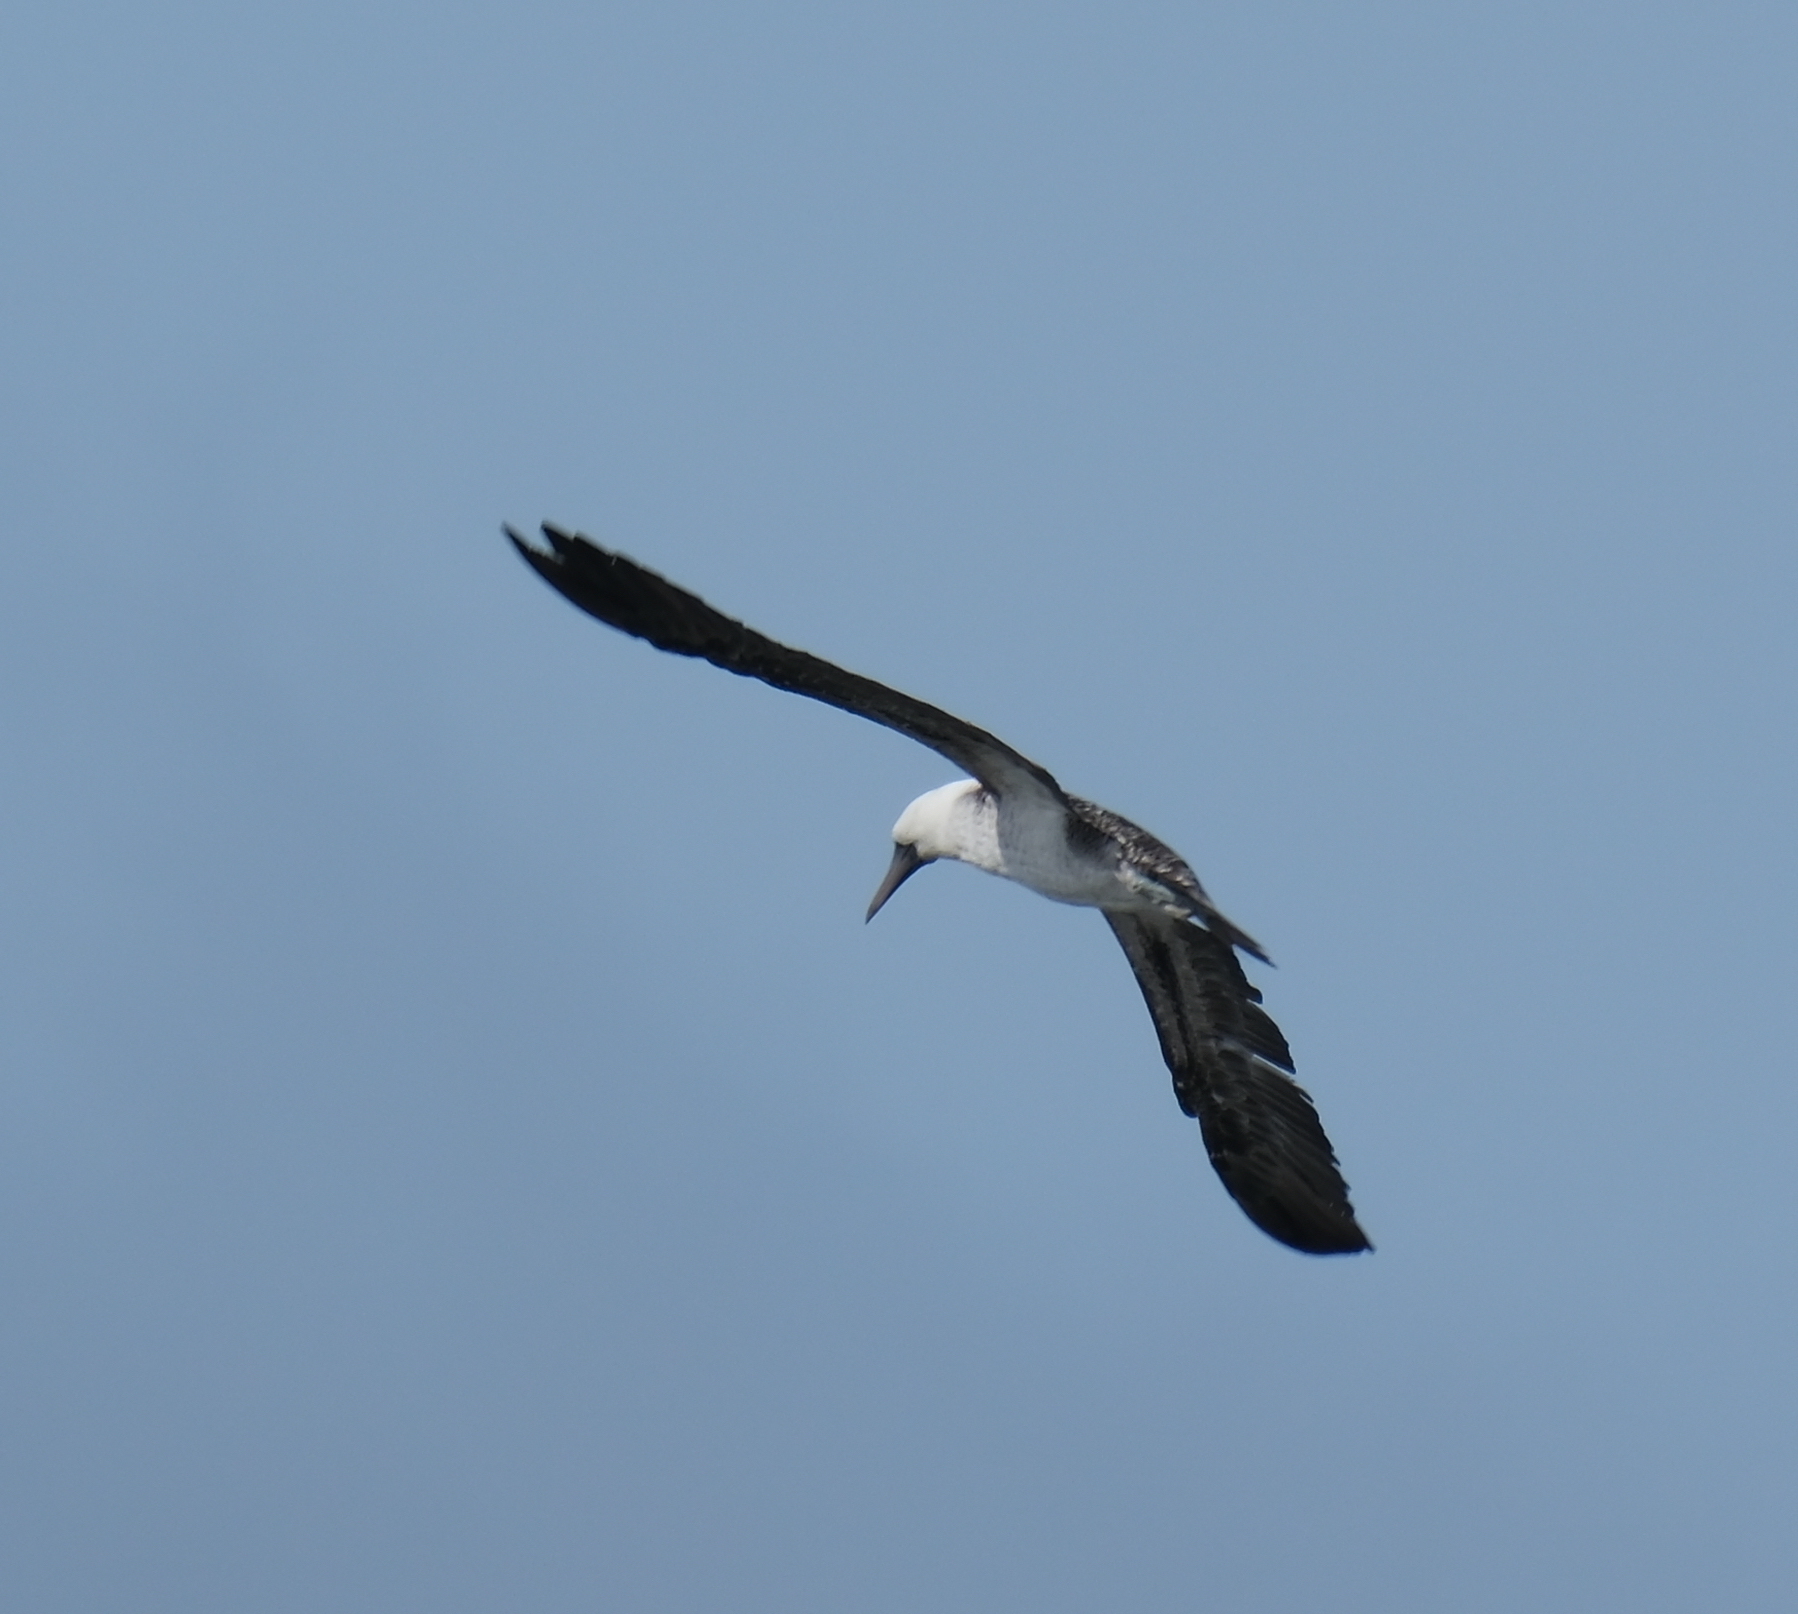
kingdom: Animalia
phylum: Chordata
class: Aves
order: Suliformes
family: Sulidae
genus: Sula
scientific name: Sula variegata
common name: Peruvian booby
